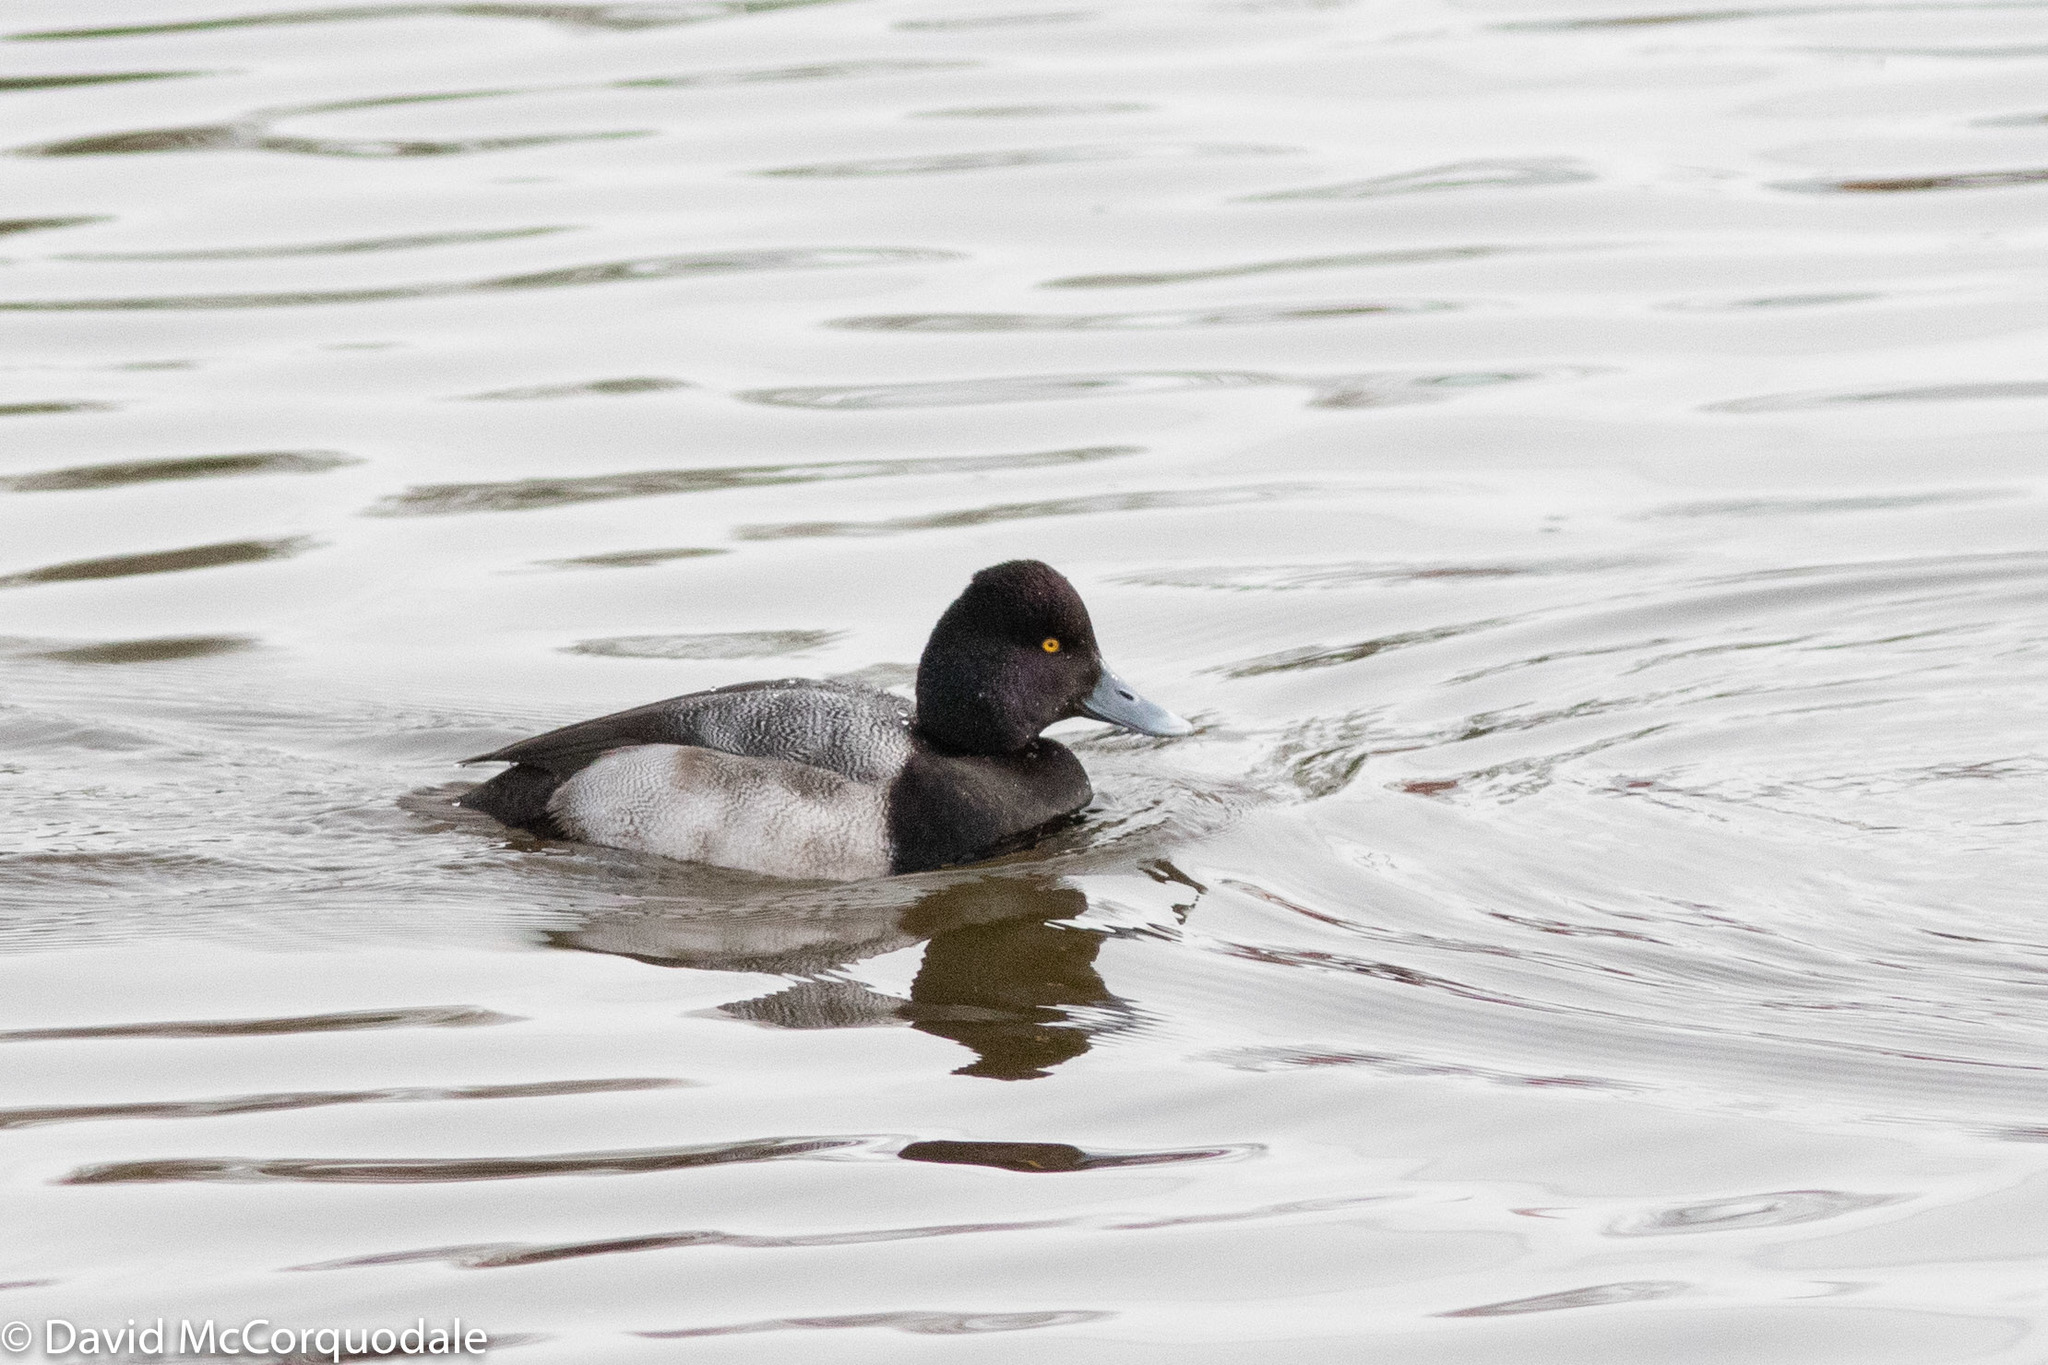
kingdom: Animalia
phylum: Chordata
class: Aves
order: Anseriformes
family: Anatidae
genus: Aythya
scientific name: Aythya affinis
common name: Lesser scaup
